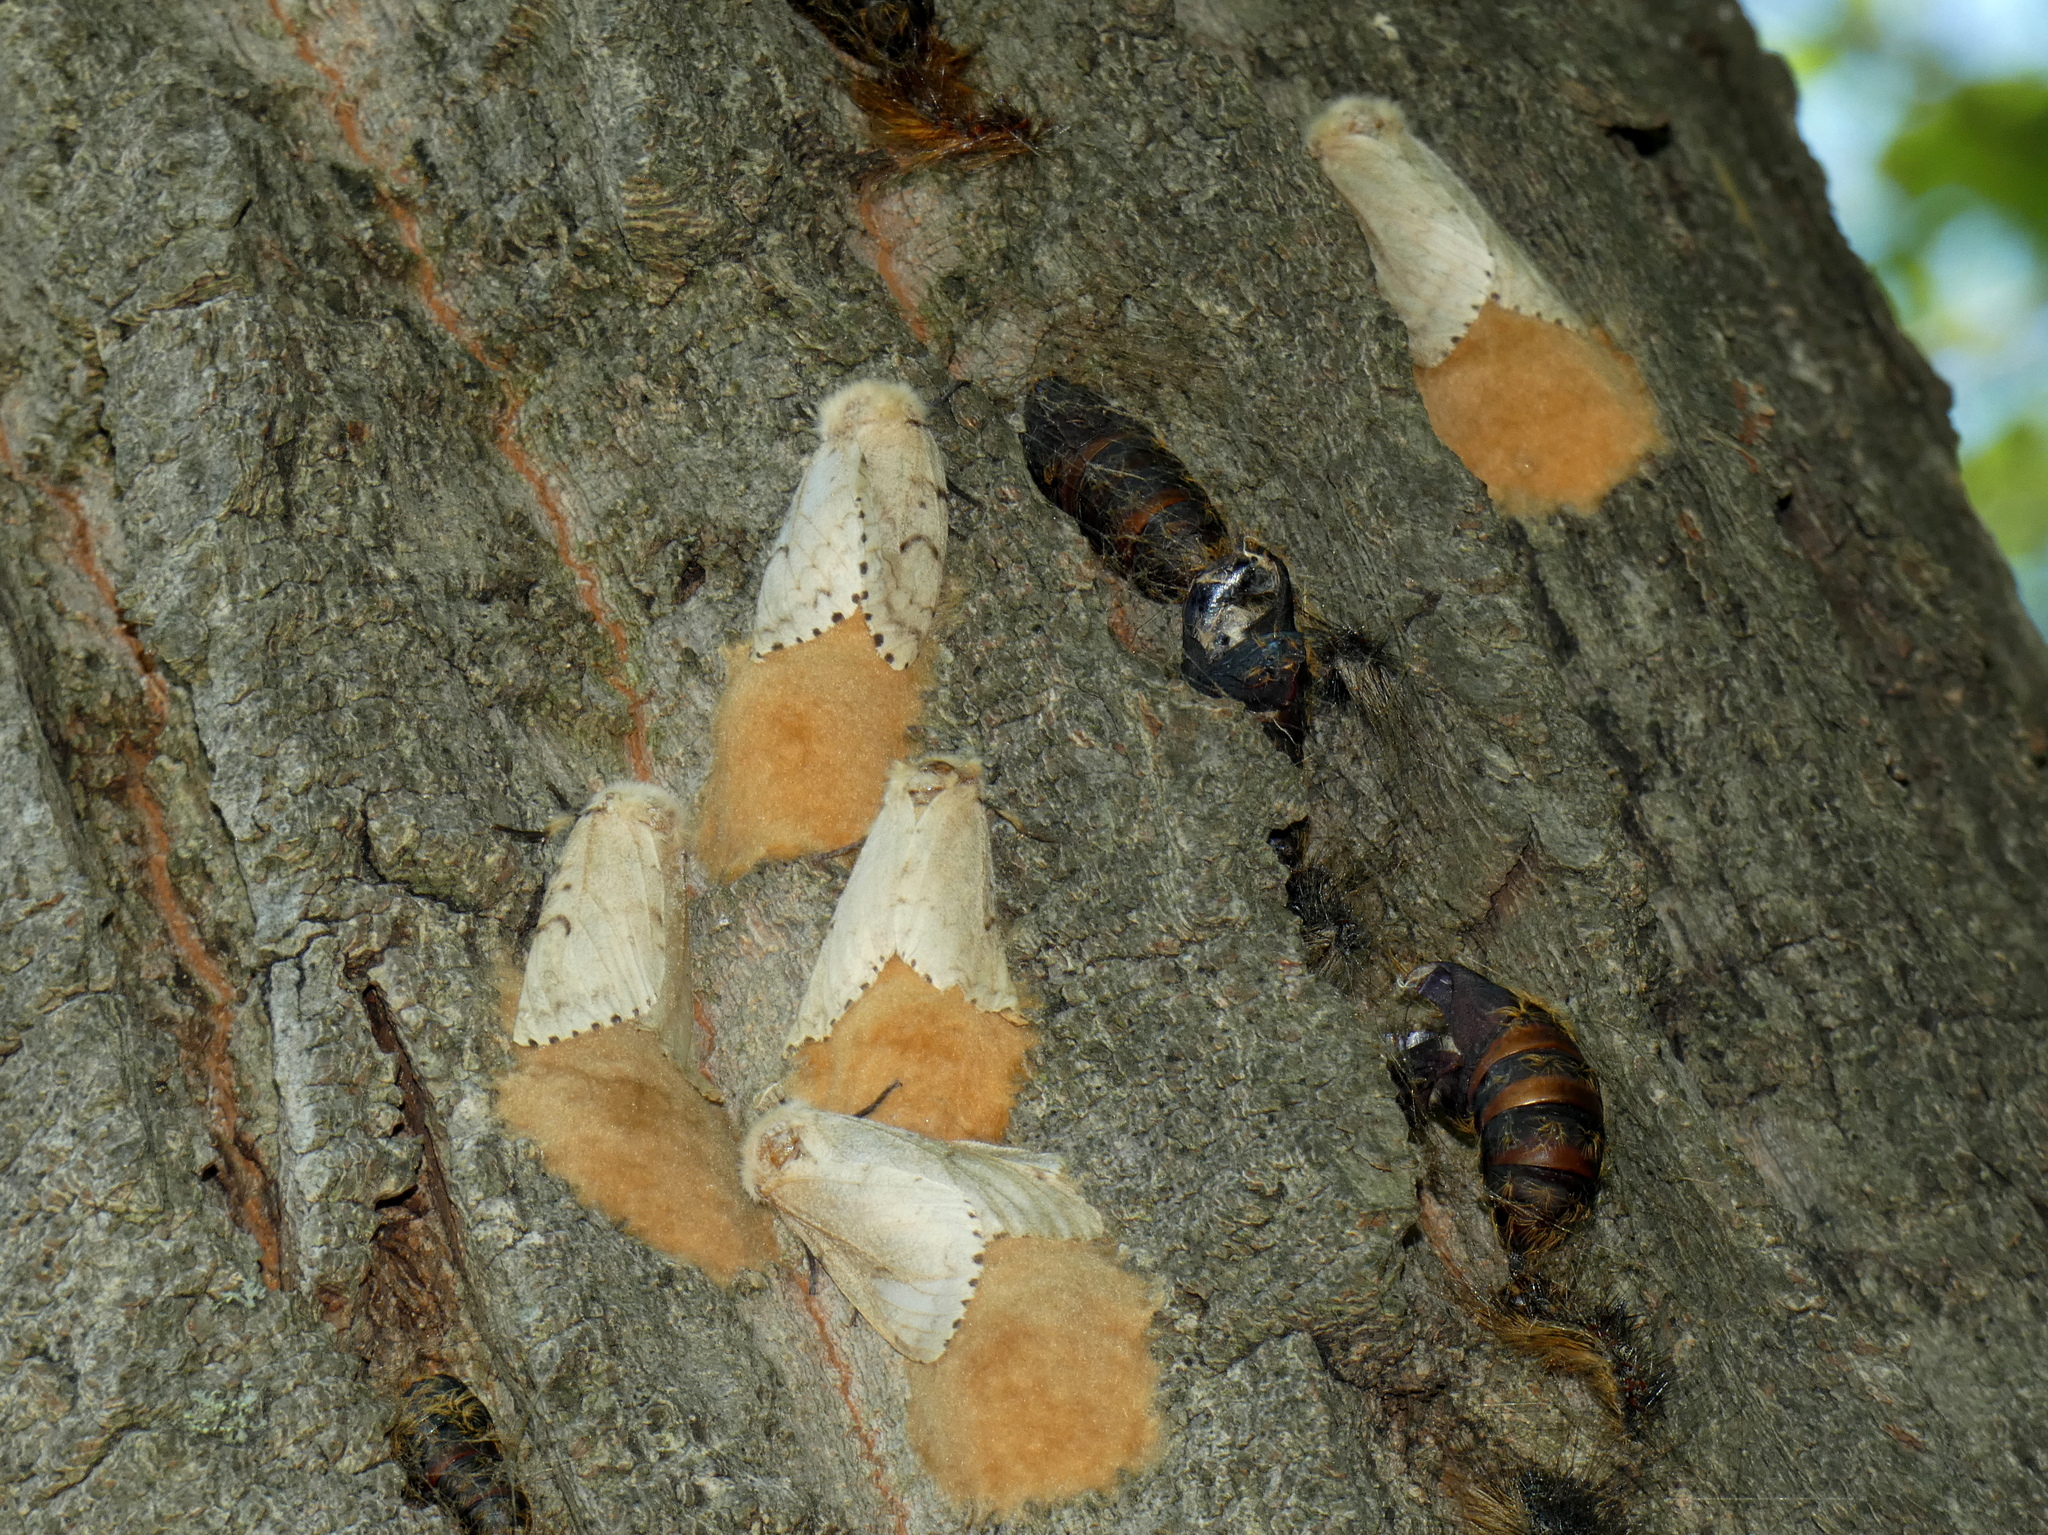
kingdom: Animalia
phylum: Arthropoda
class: Insecta
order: Lepidoptera
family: Erebidae
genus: Lymantria
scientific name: Lymantria dispar
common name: Gypsy moth
